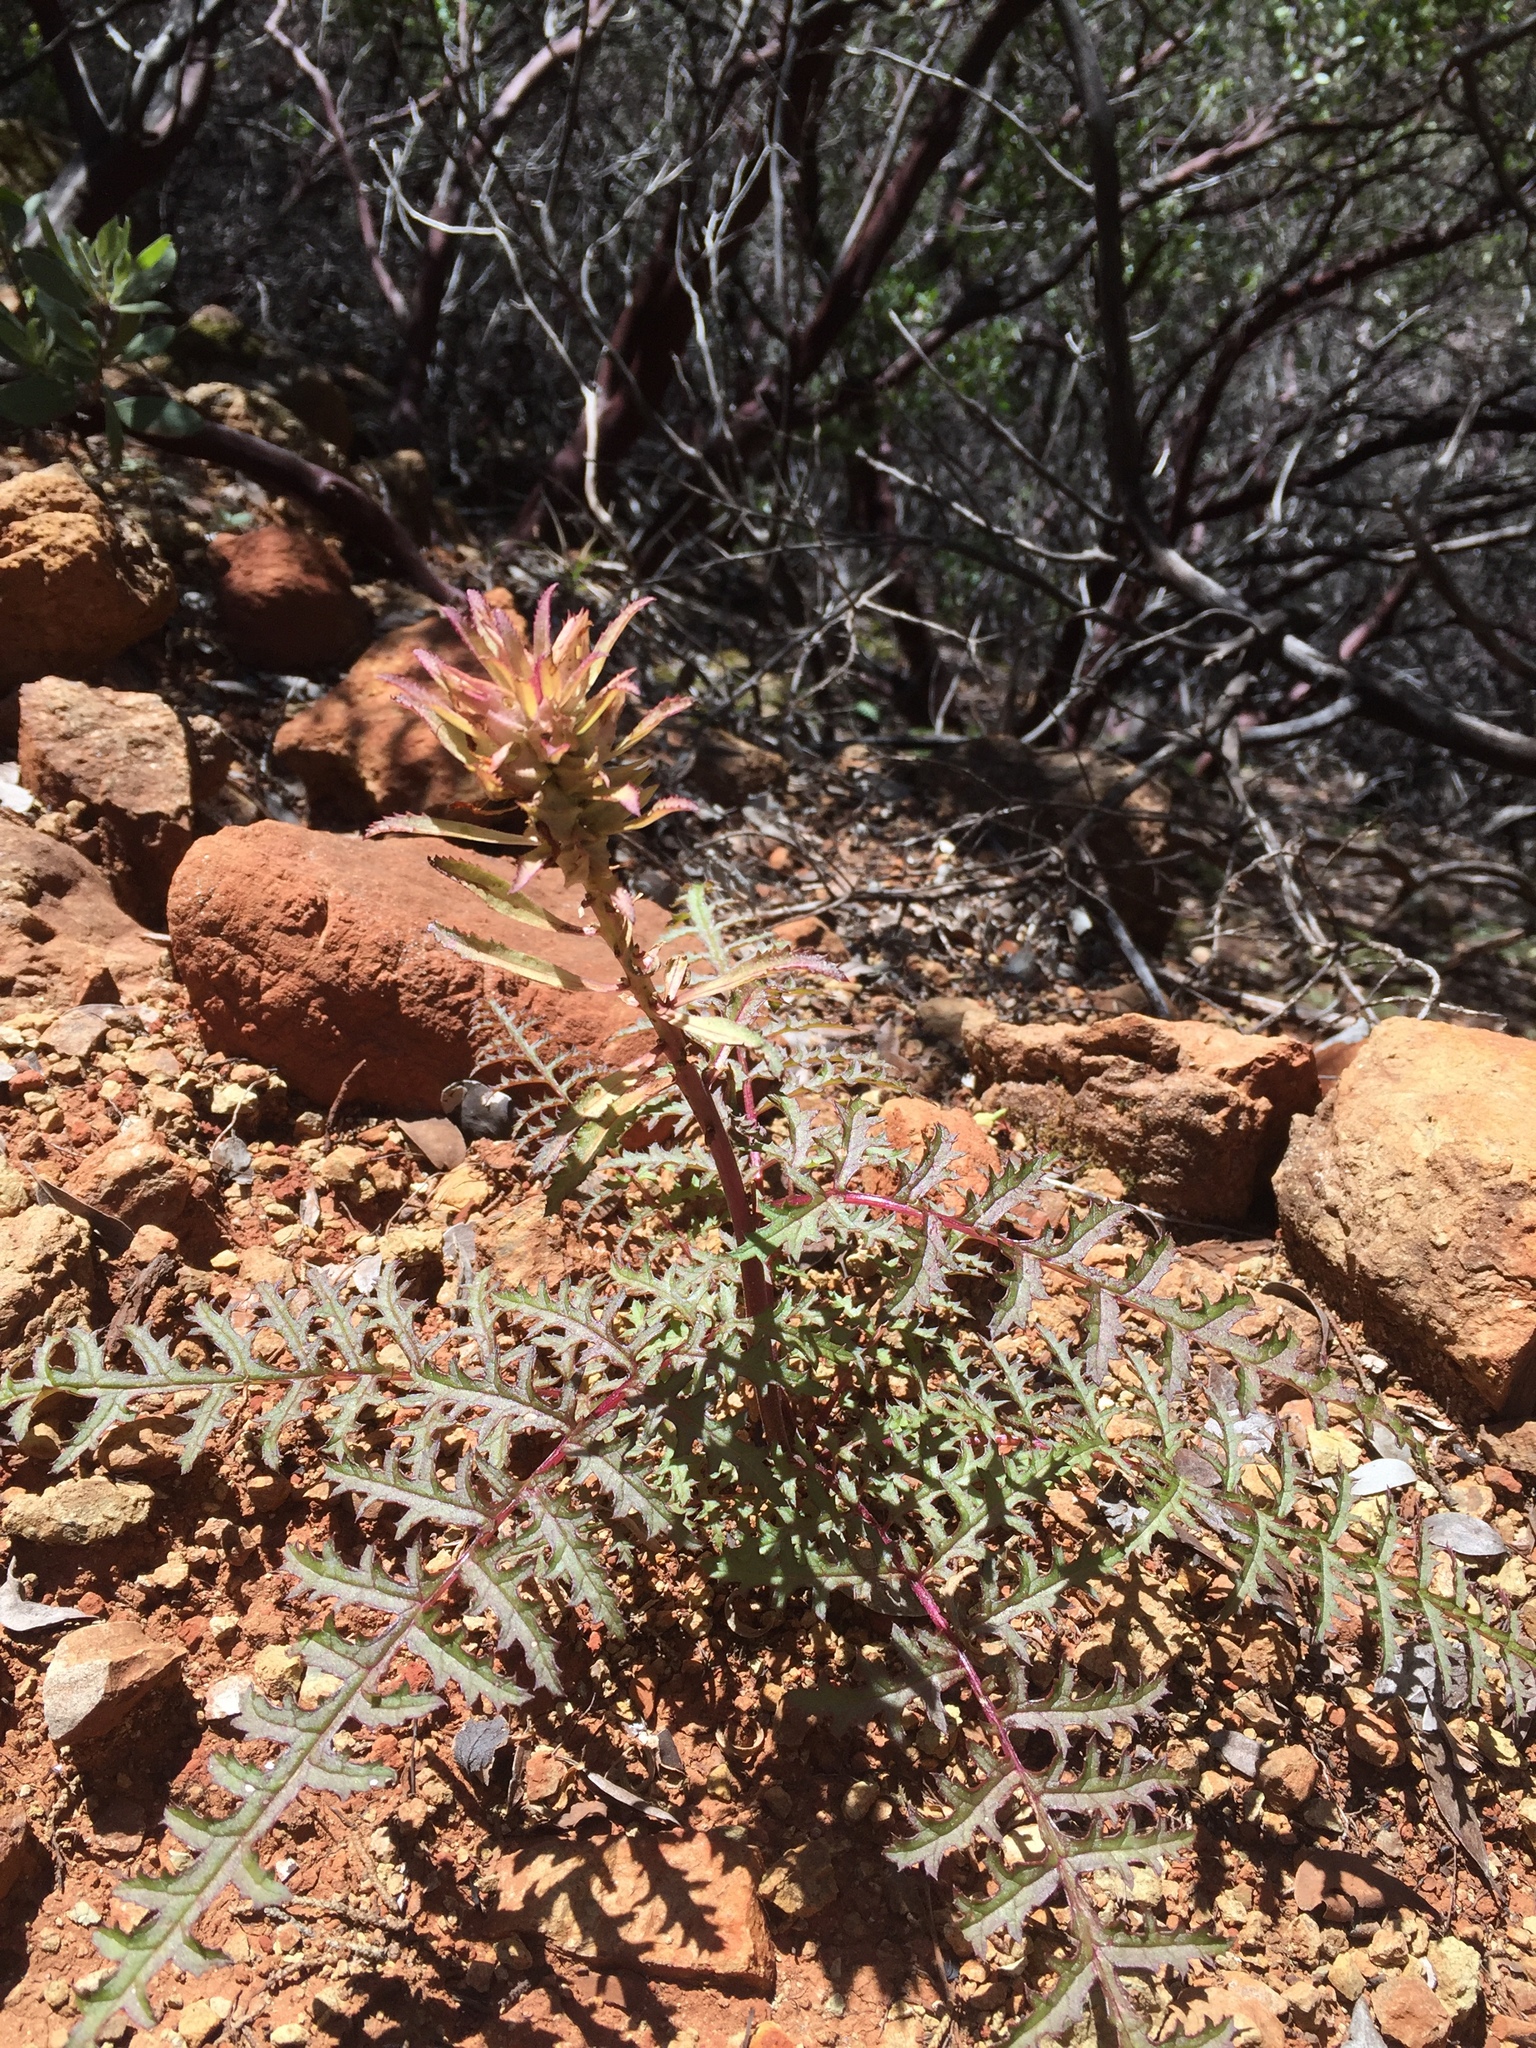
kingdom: Plantae
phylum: Tracheophyta
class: Magnoliopsida
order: Lamiales
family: Orobanchaceae
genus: Pedicularis
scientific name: Pedicularis densiflora
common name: Indian warrior
